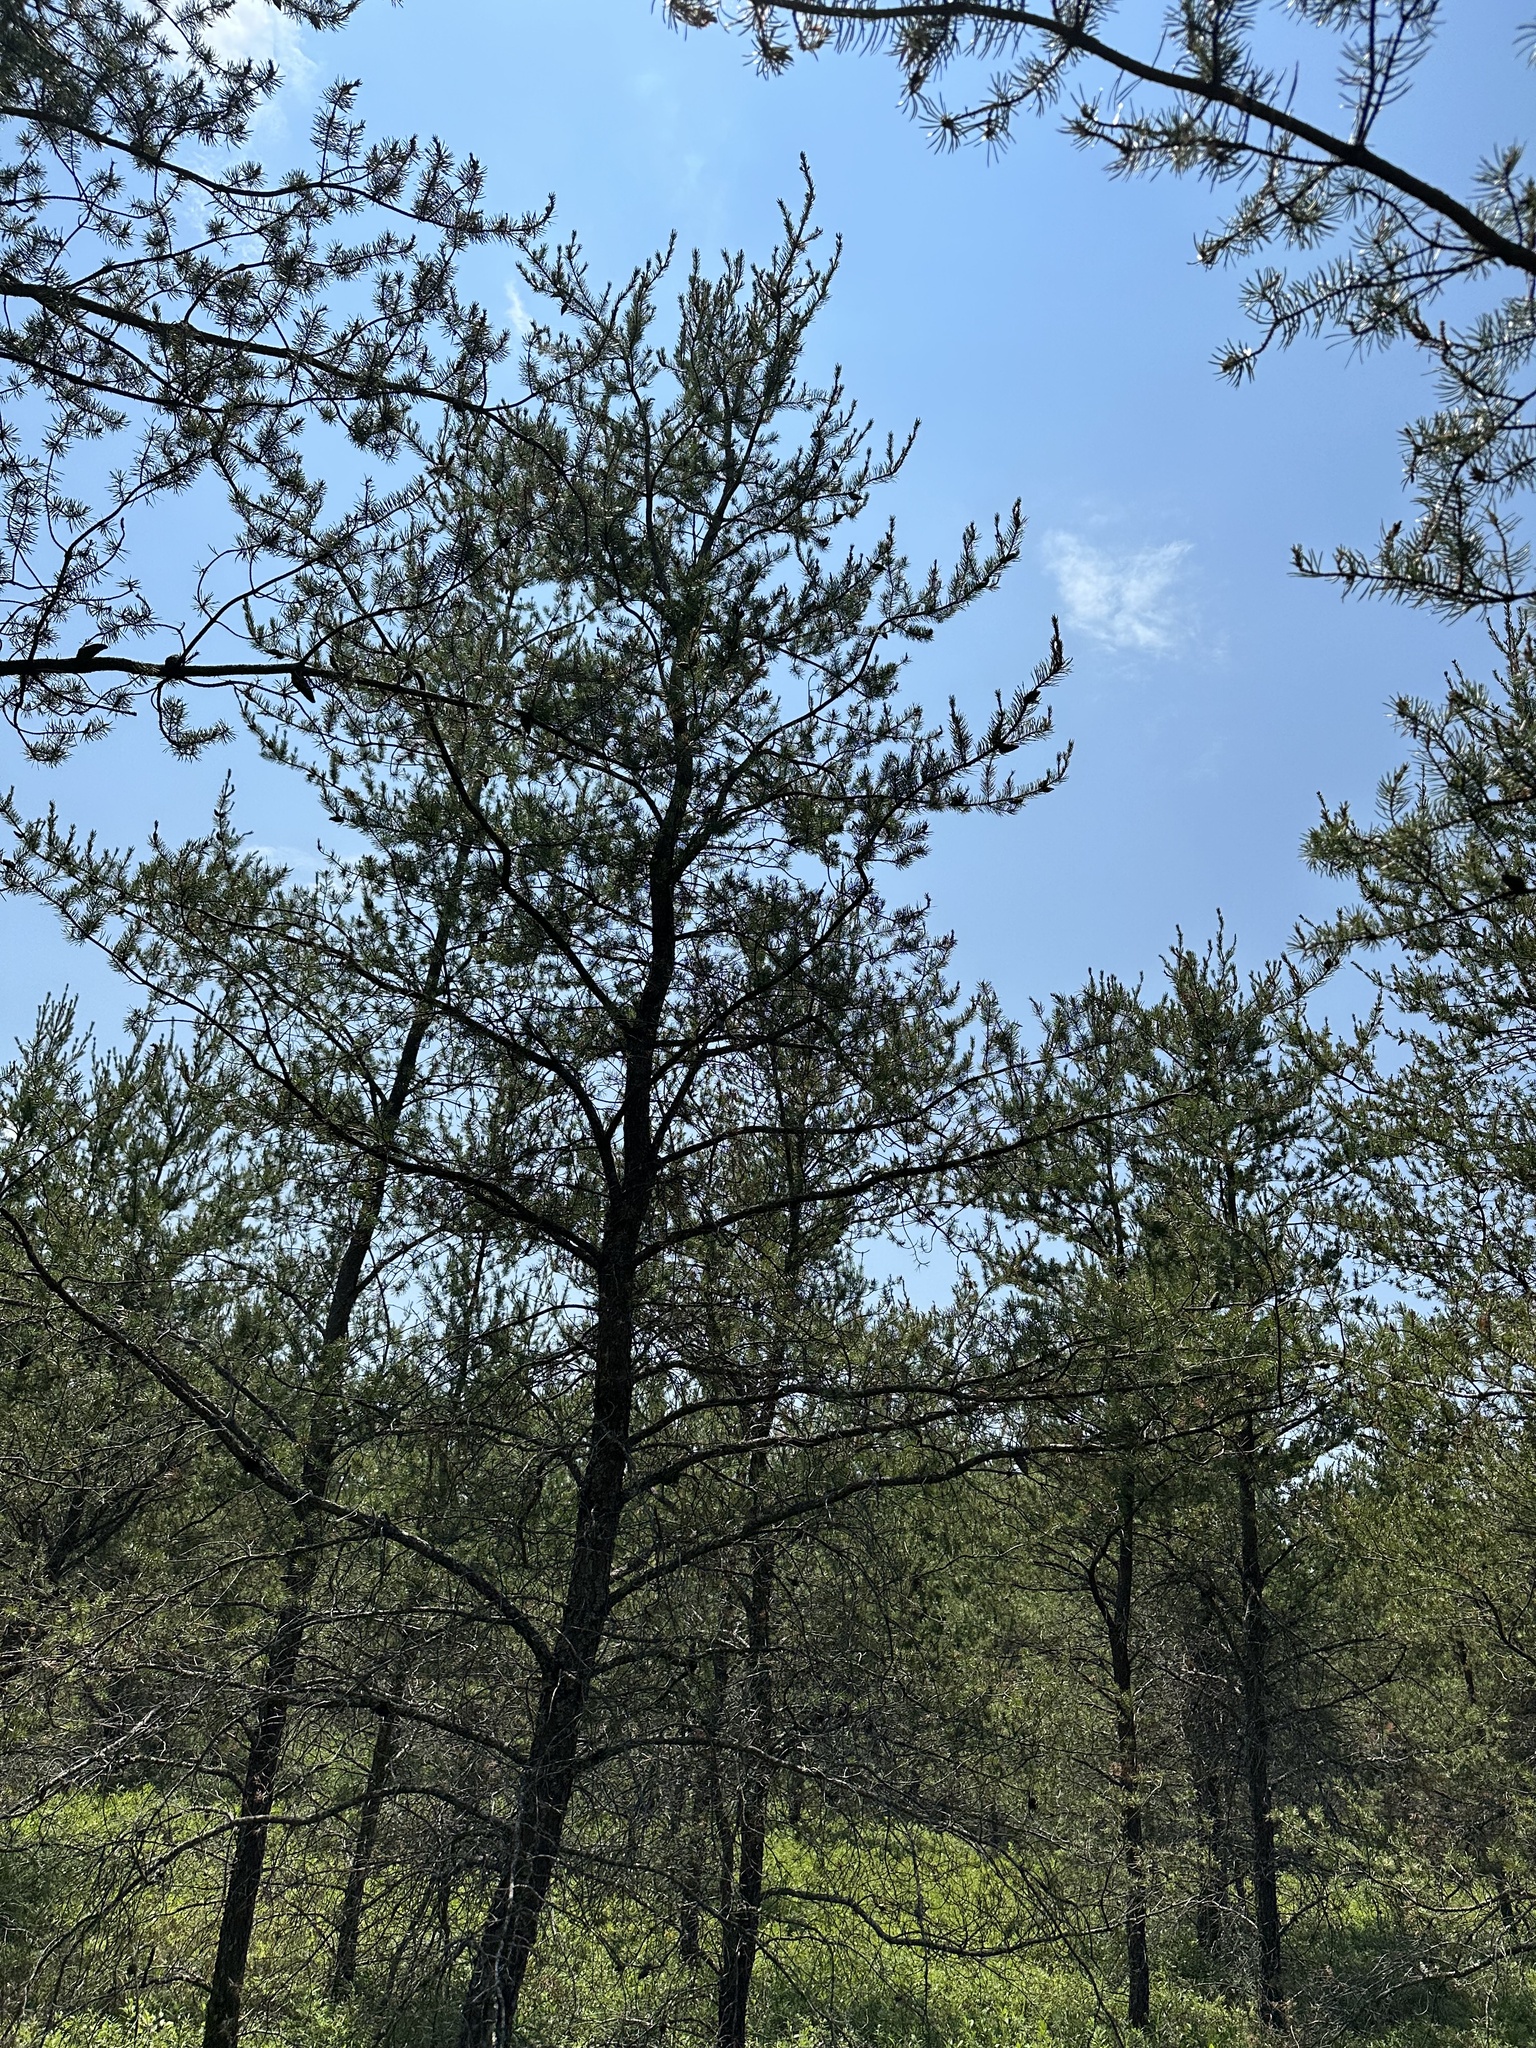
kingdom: Plantae
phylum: Tracheophyta
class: Pinopsida
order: Pinales
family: Pinaceae
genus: Pinus
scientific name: Pinus banksiana
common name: Jack pine
